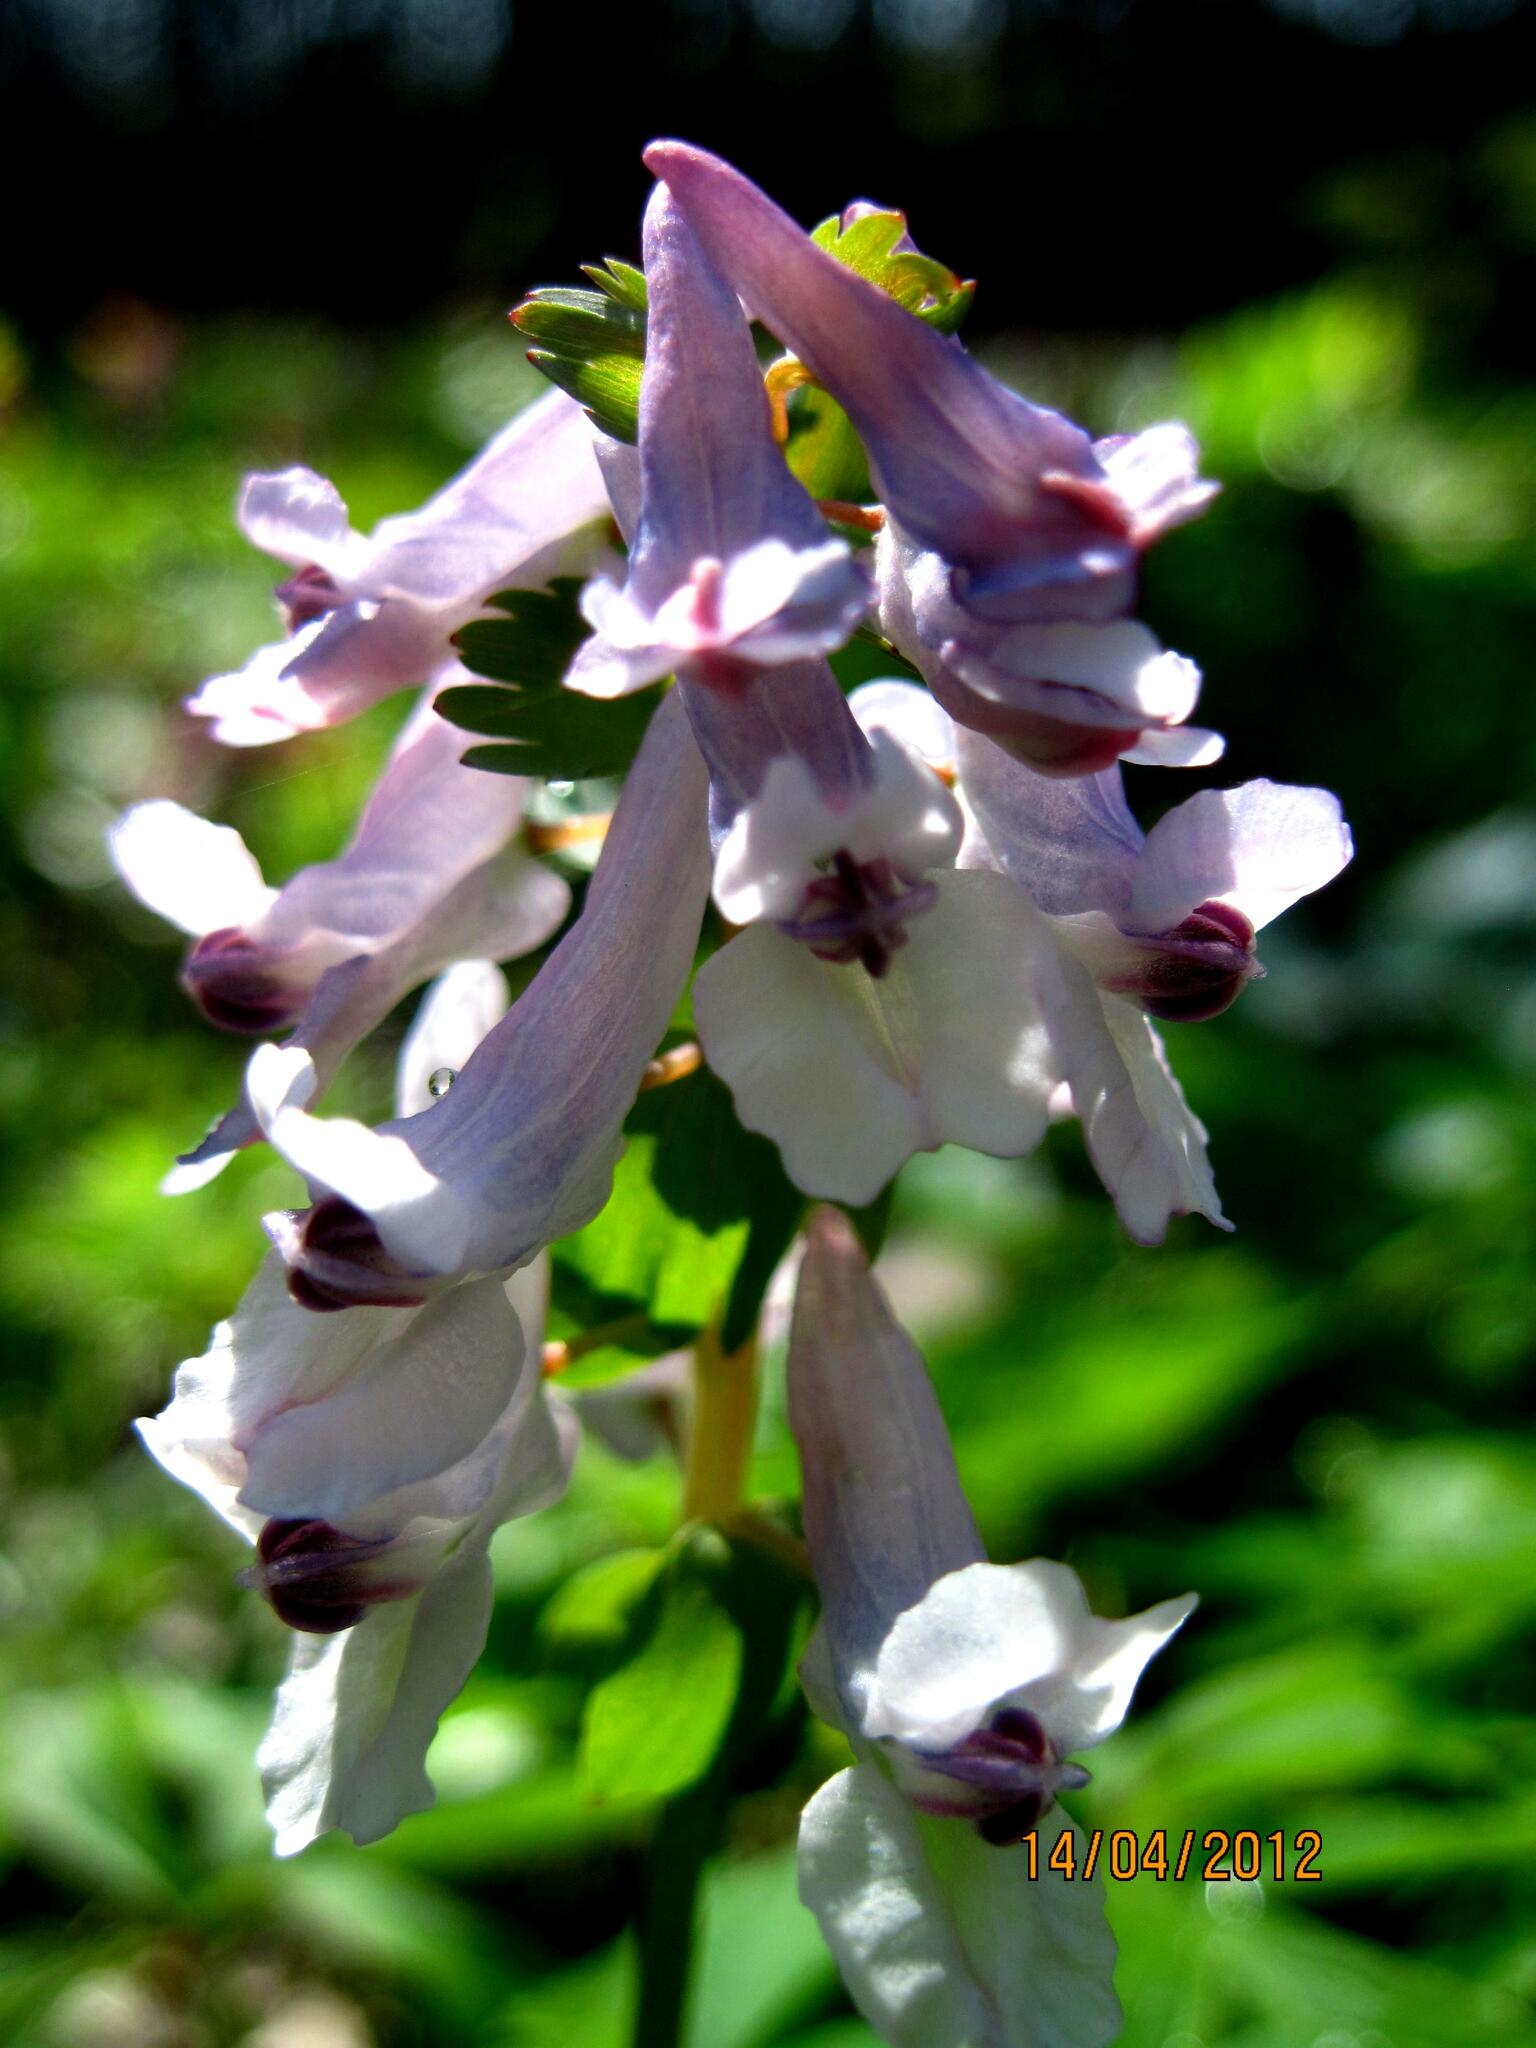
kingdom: Plantae
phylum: Tracheophyta
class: Magnoliopsida
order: Ranunculales
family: Papaveraceae
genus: Corydalis
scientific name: Corydalis solida
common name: Bird-in-a-bush
